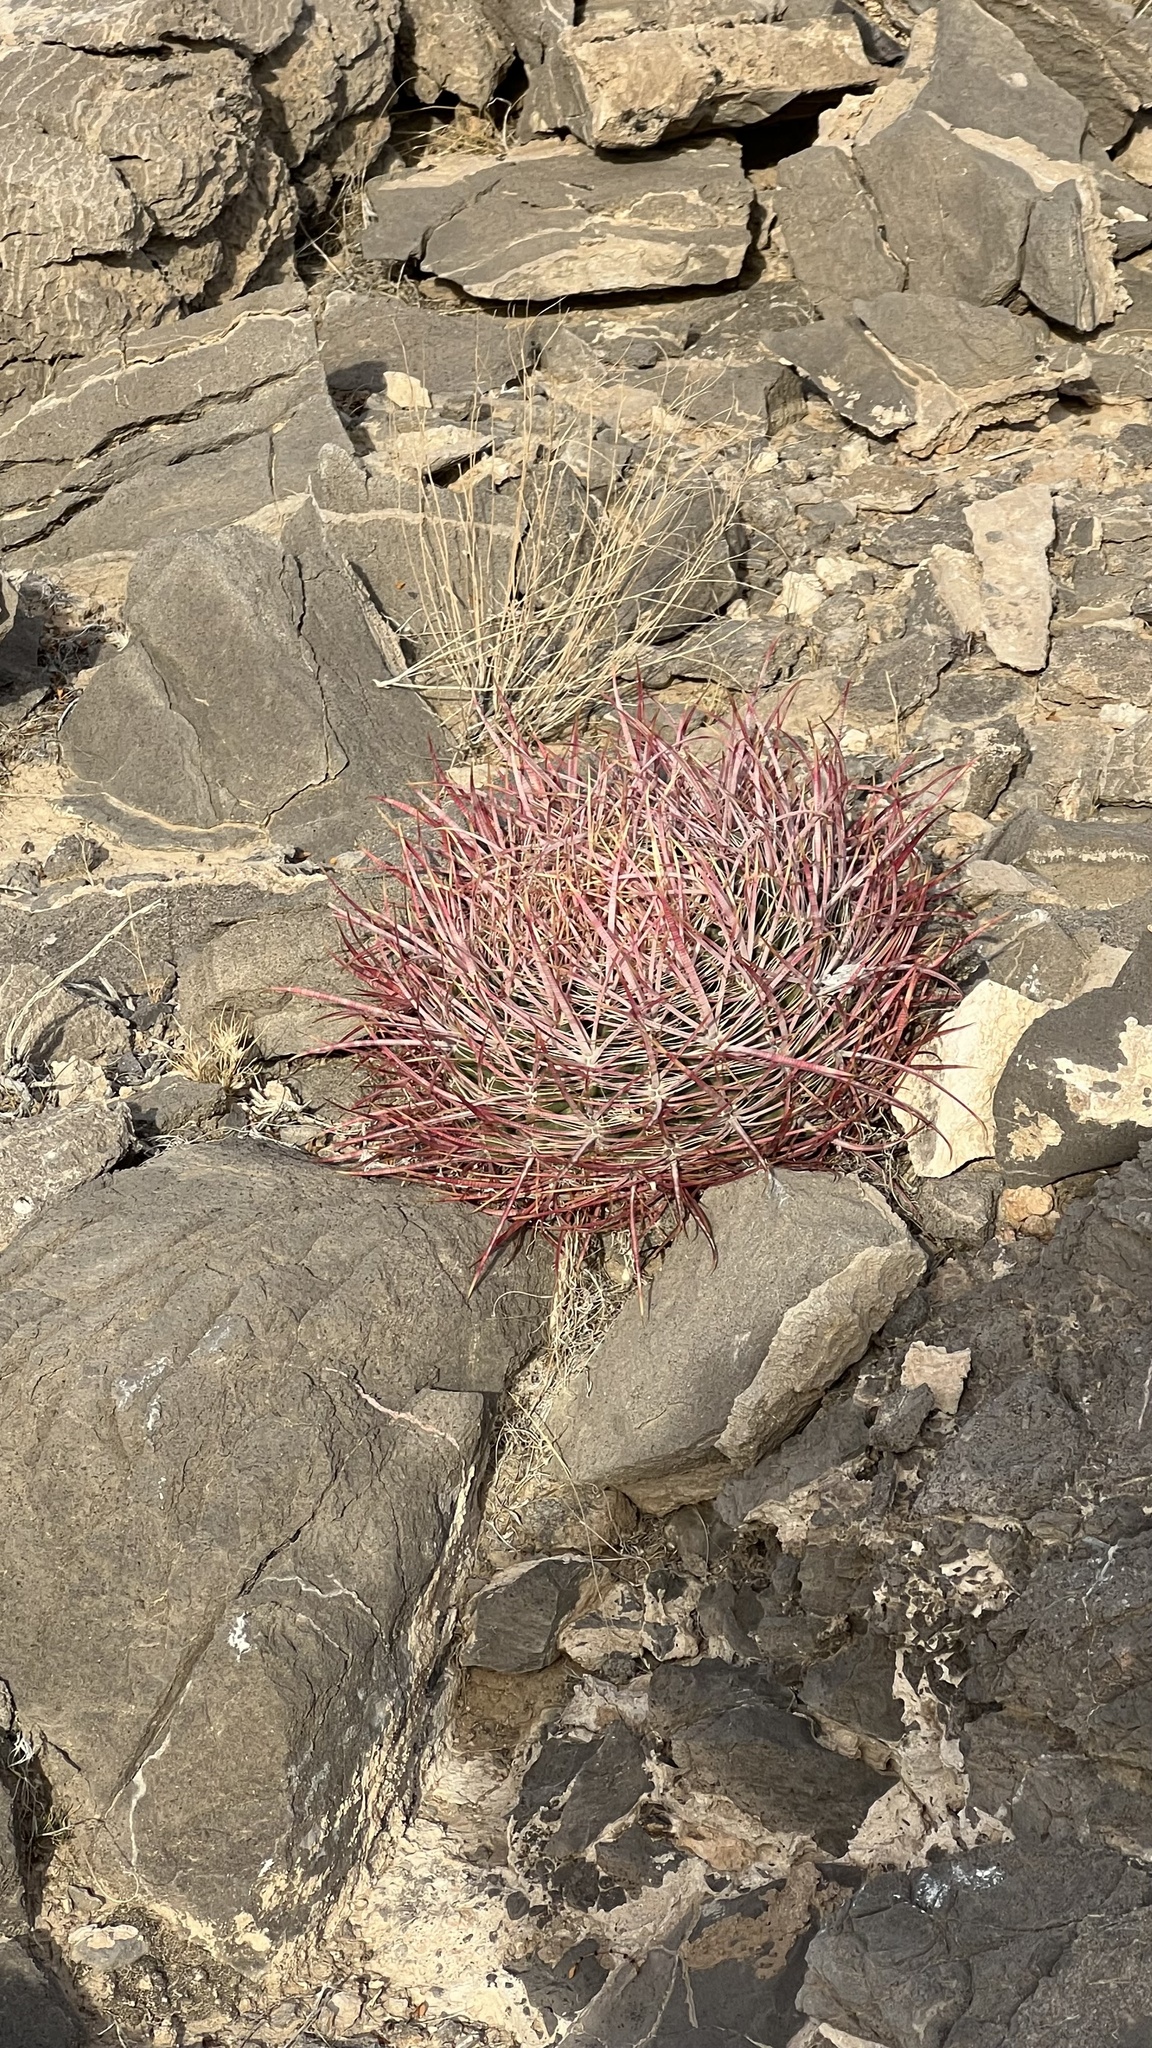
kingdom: Plantae
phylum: Tracheophyta
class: Magnoliopsida
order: Caryophyllales
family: Cactaceae
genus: Ferocactus
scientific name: Ferocactus cylindraceus
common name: California barrel cactus
